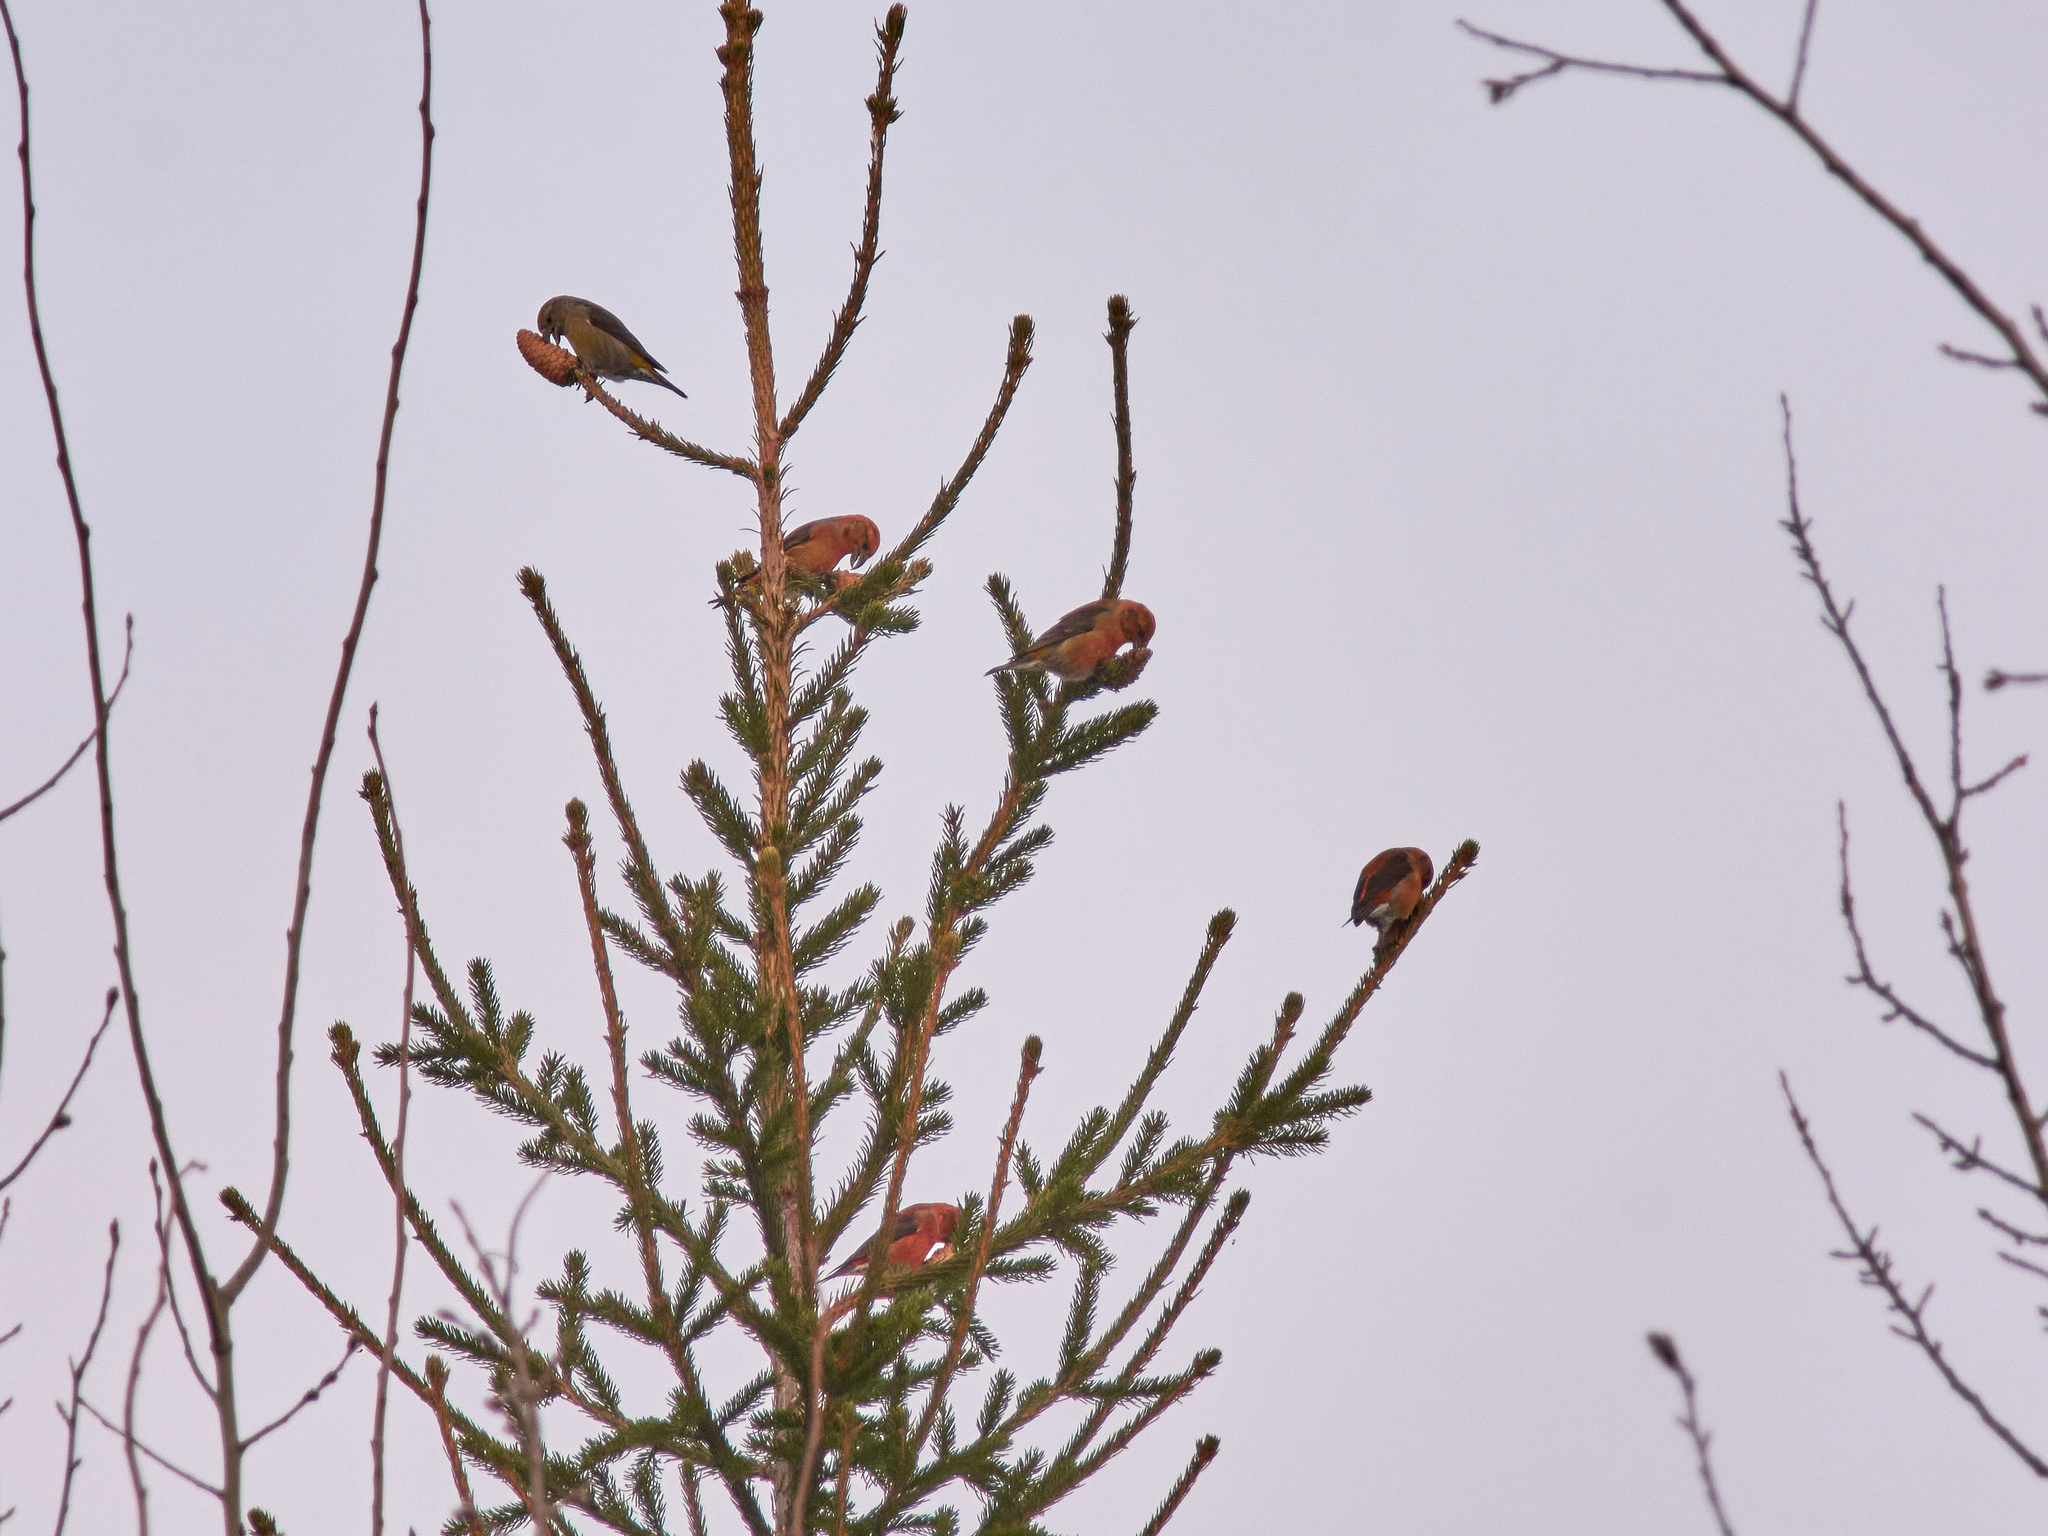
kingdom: Animalia
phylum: Chordata
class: Aves
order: Passeriformes
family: Fringillidae
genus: Loxia
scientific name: Loxia curvirostra
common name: Red crossbill
